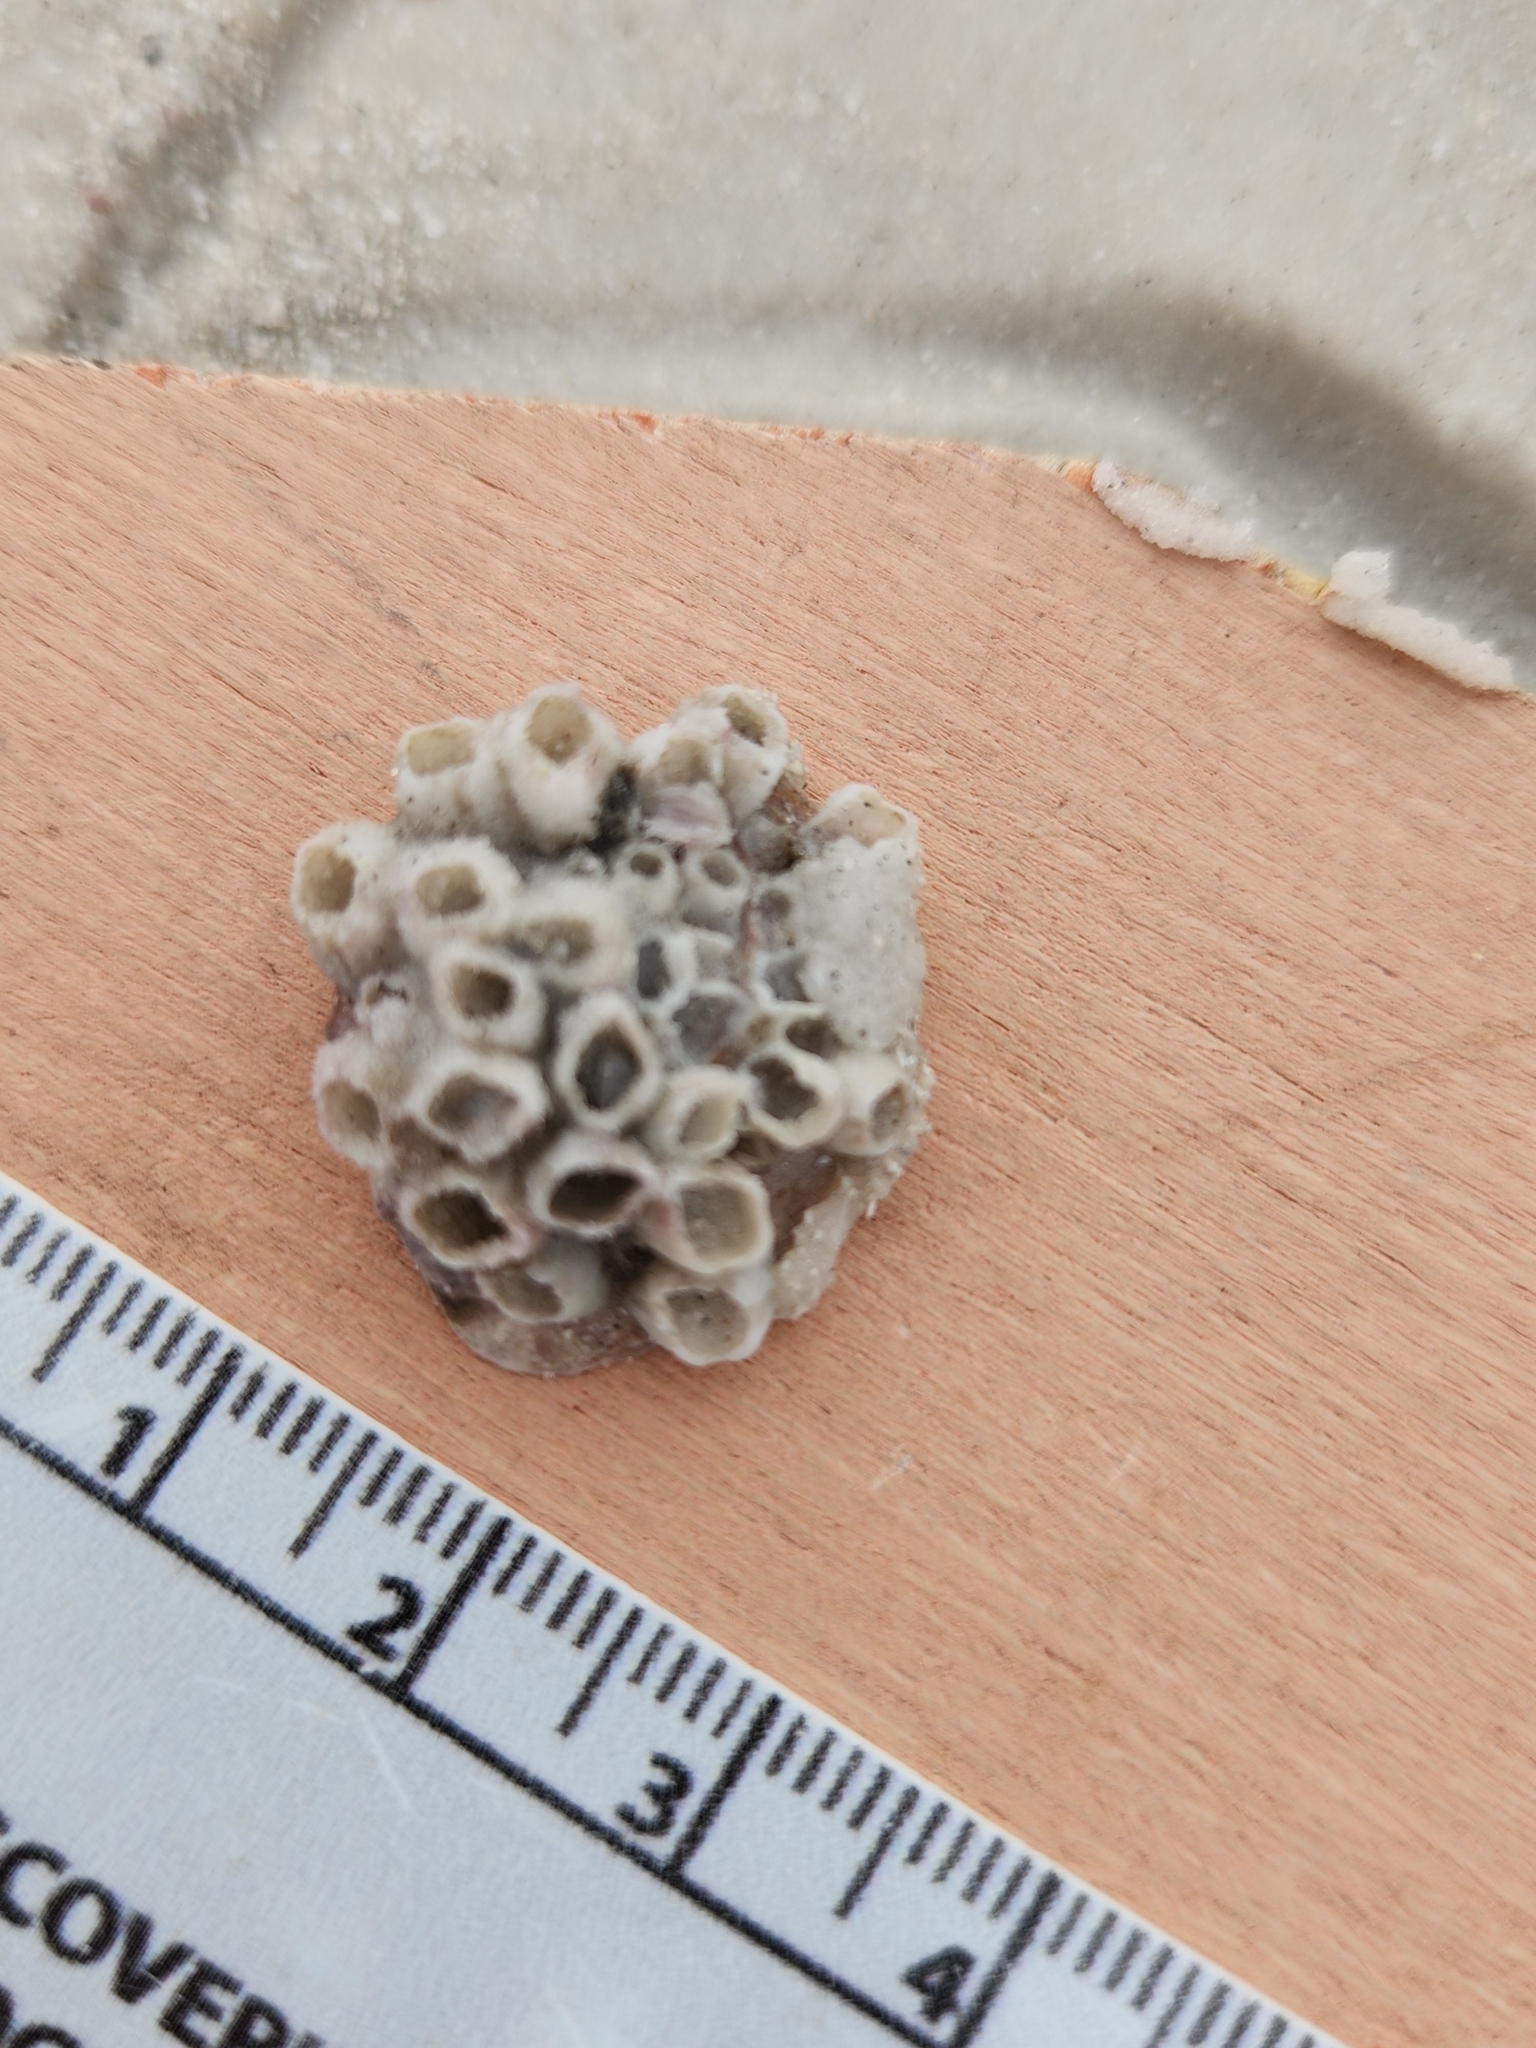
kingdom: Animalia
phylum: Arthropoda
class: Maxillopoda
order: Sessilia
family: Balanidae
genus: Amphibalanus
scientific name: Amphibalanus improvisus
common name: Bay barnacle
